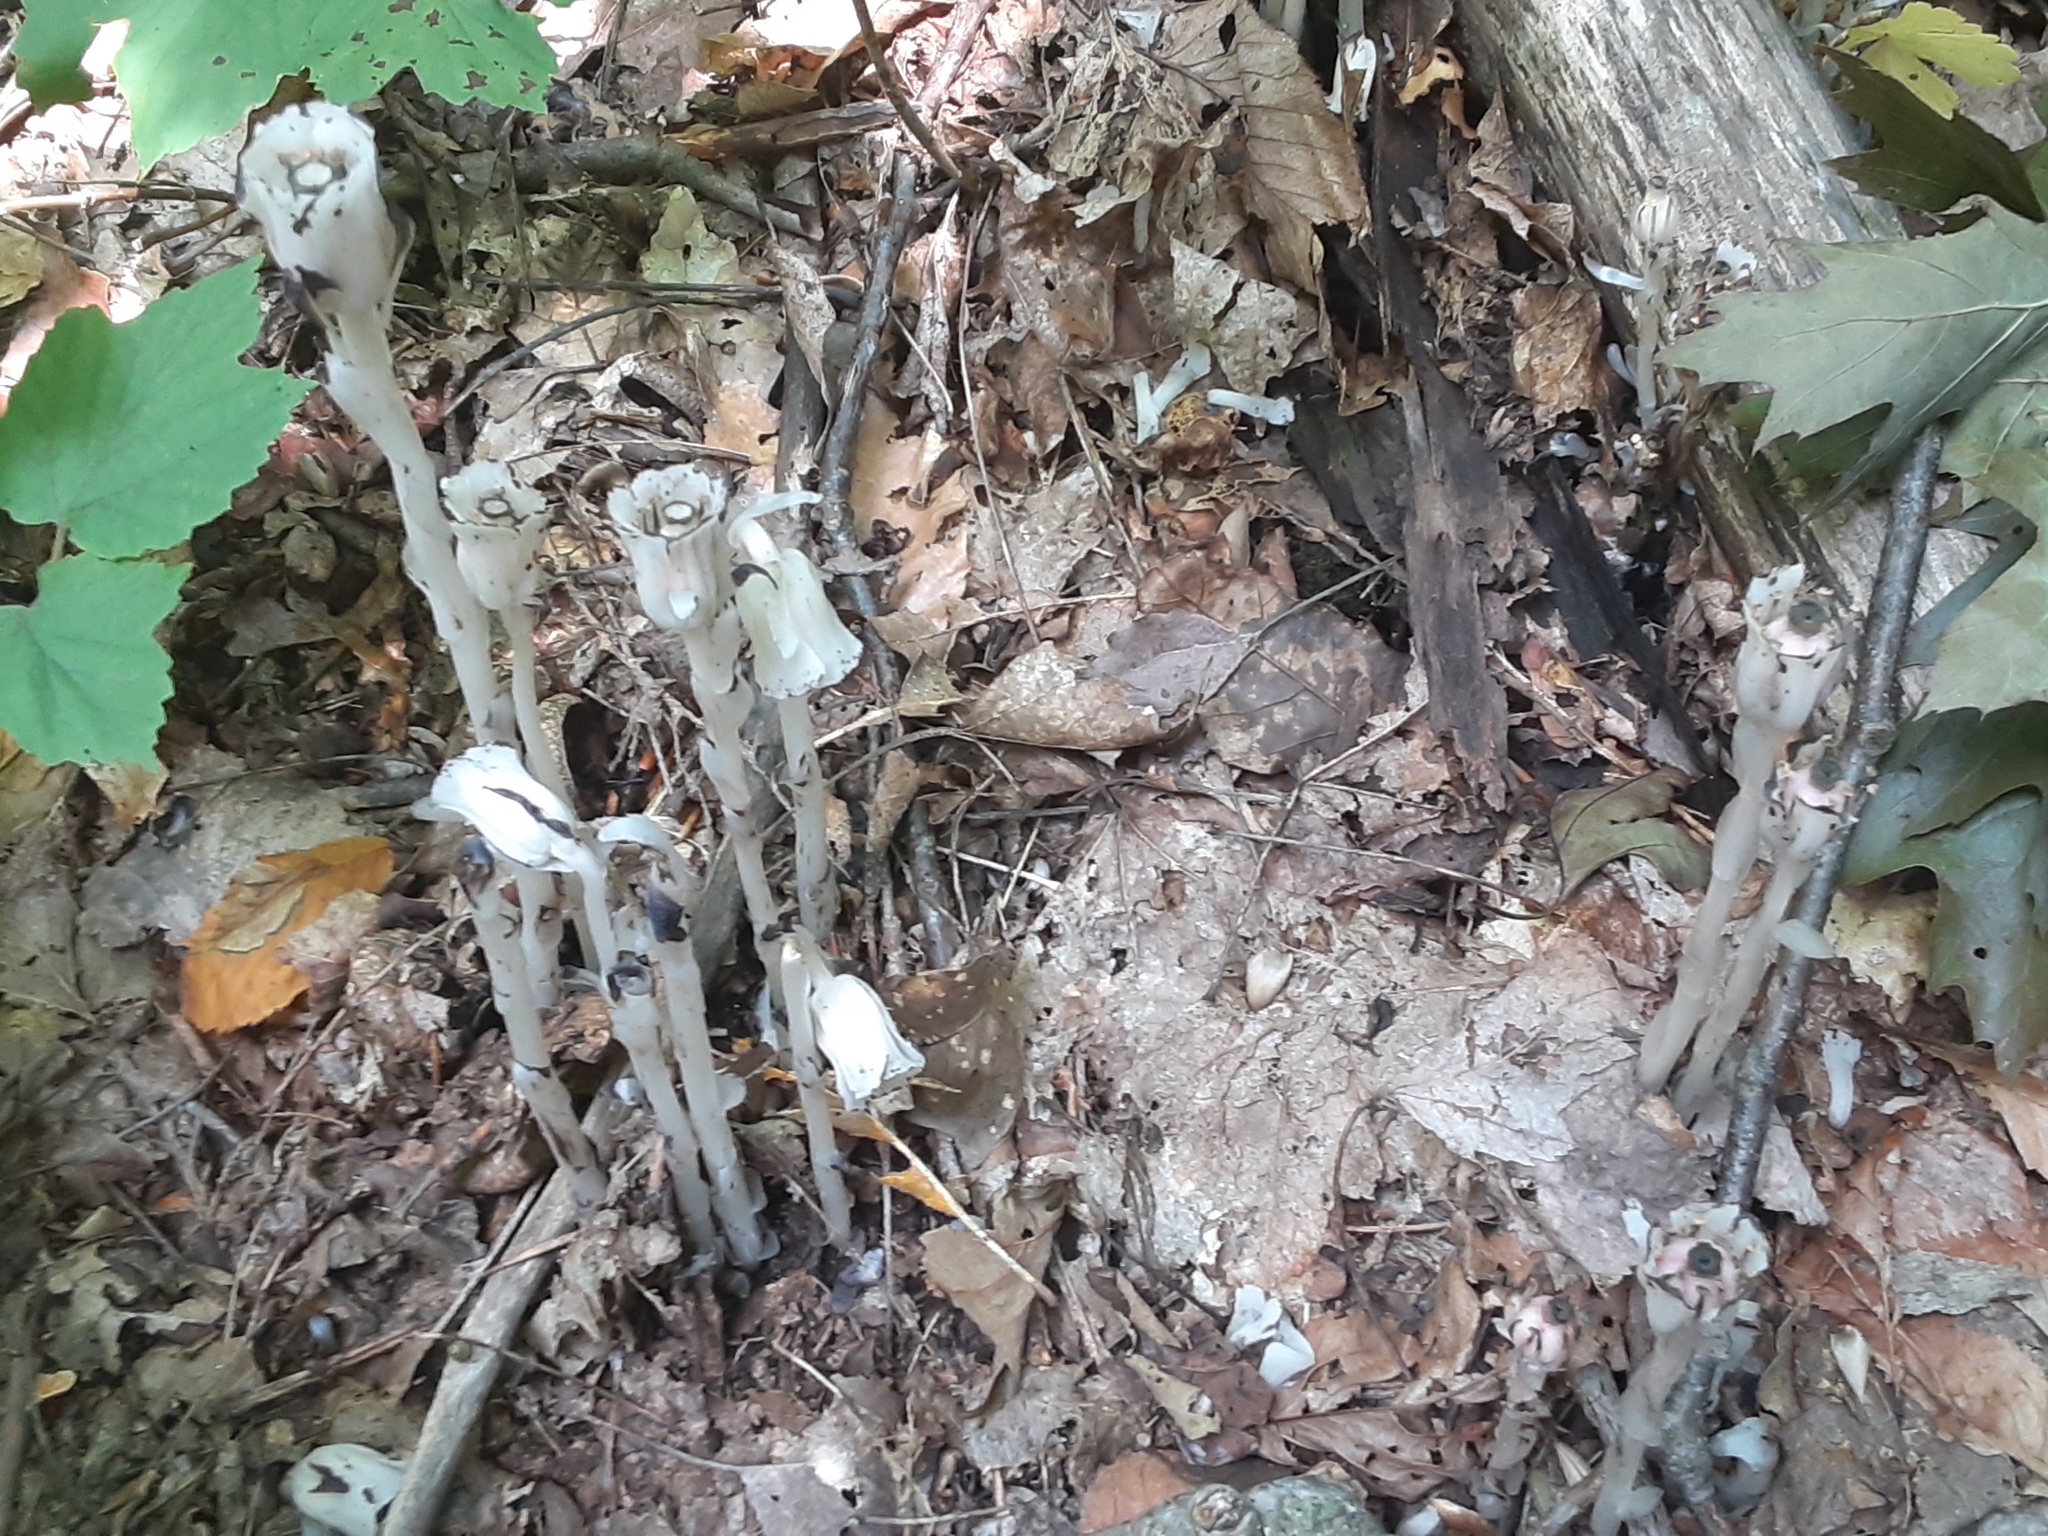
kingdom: Plantae
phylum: Tracheophyta
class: Magnoliopsida
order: Ericales
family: Ericaceae
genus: Monotropa
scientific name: Monotropa uniflora
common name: Convulsion root
